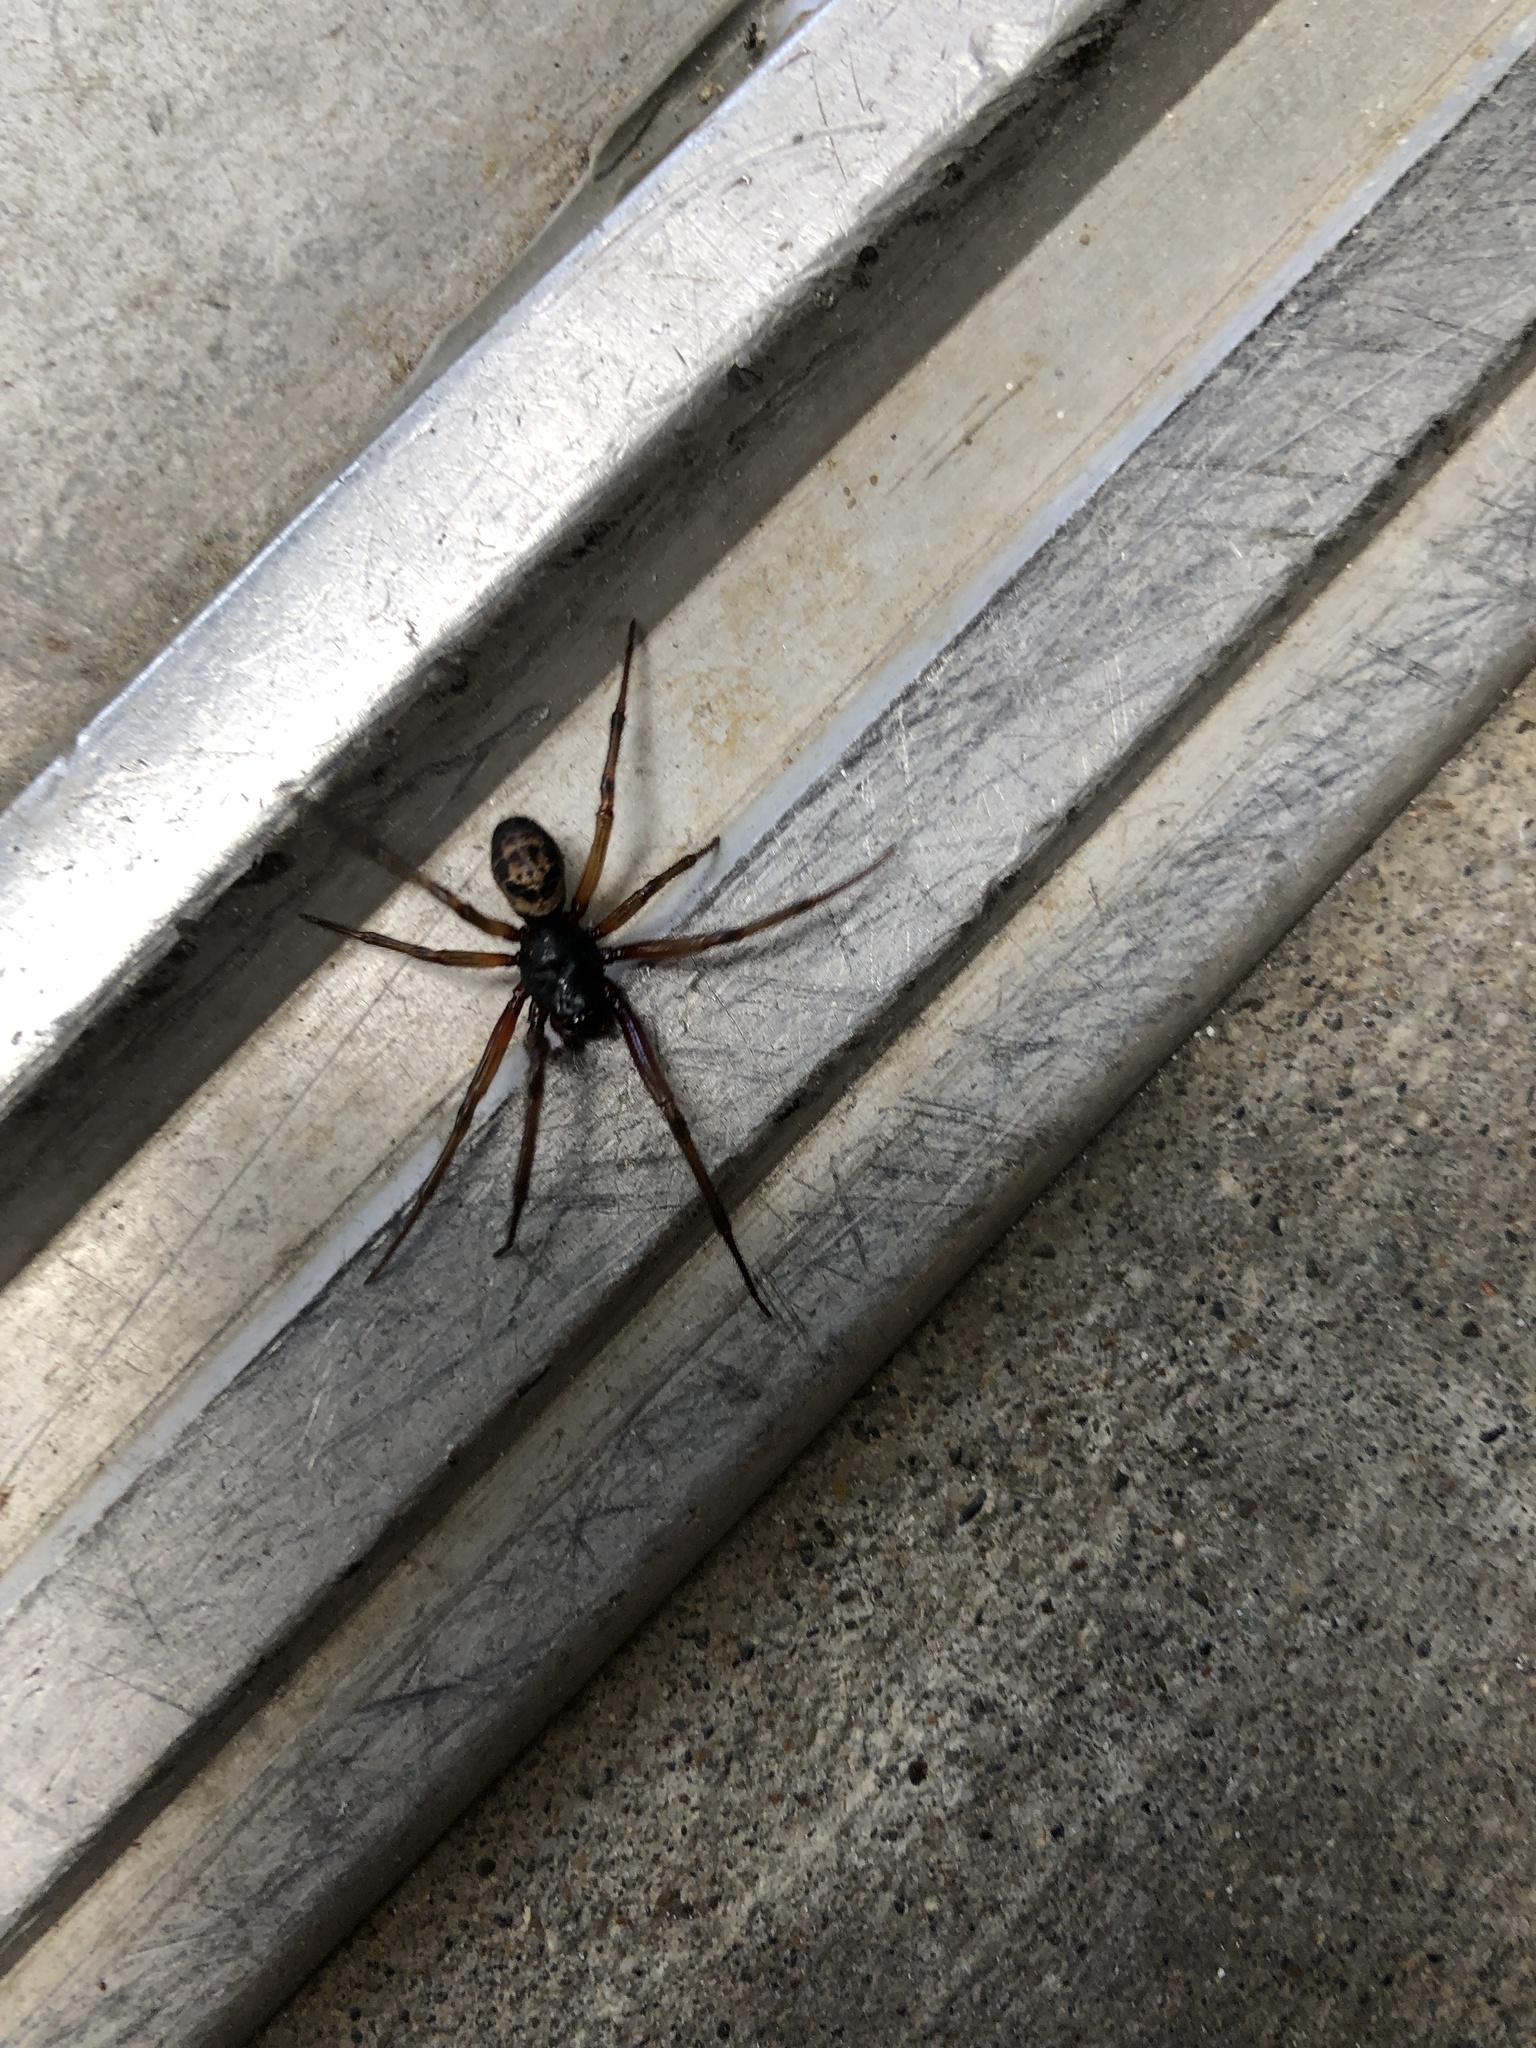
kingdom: Animalia
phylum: Arthropoda
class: Arachnida
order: Araneae
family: Theridiidae
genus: Steatoda
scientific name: Steatoda nobilis
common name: Cobweb weaver
